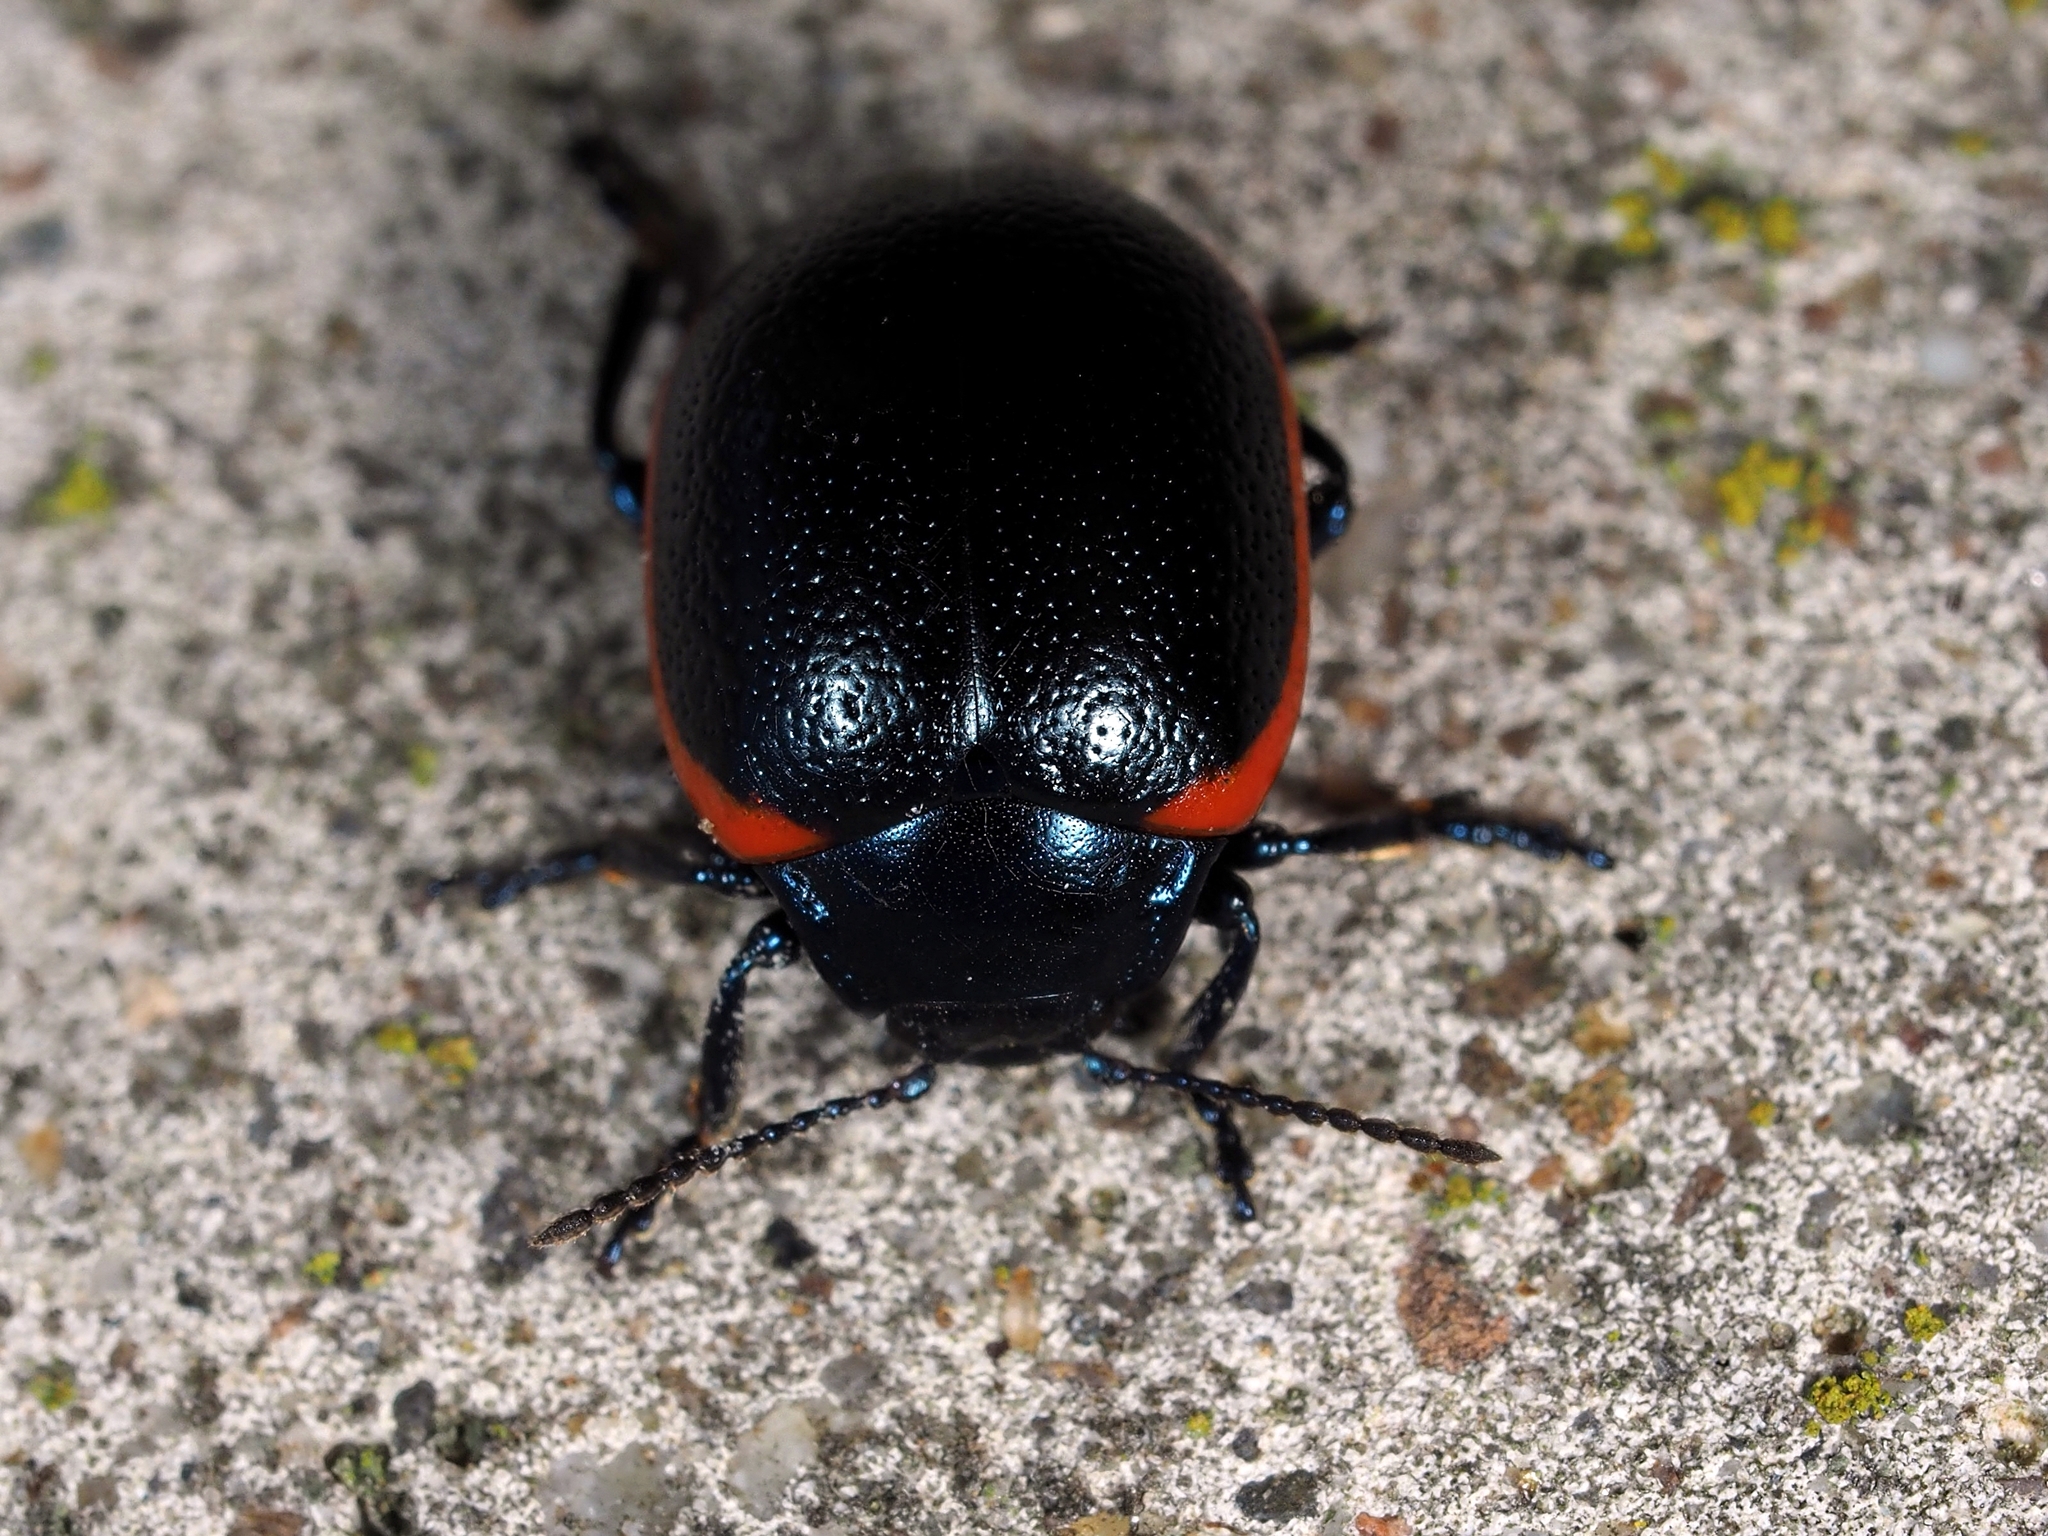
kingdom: Animalia
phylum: Arthropoda
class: Insecta
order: Coleoptera
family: Chrysomelidae
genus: Chrysolina
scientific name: Chrysolina rossia
